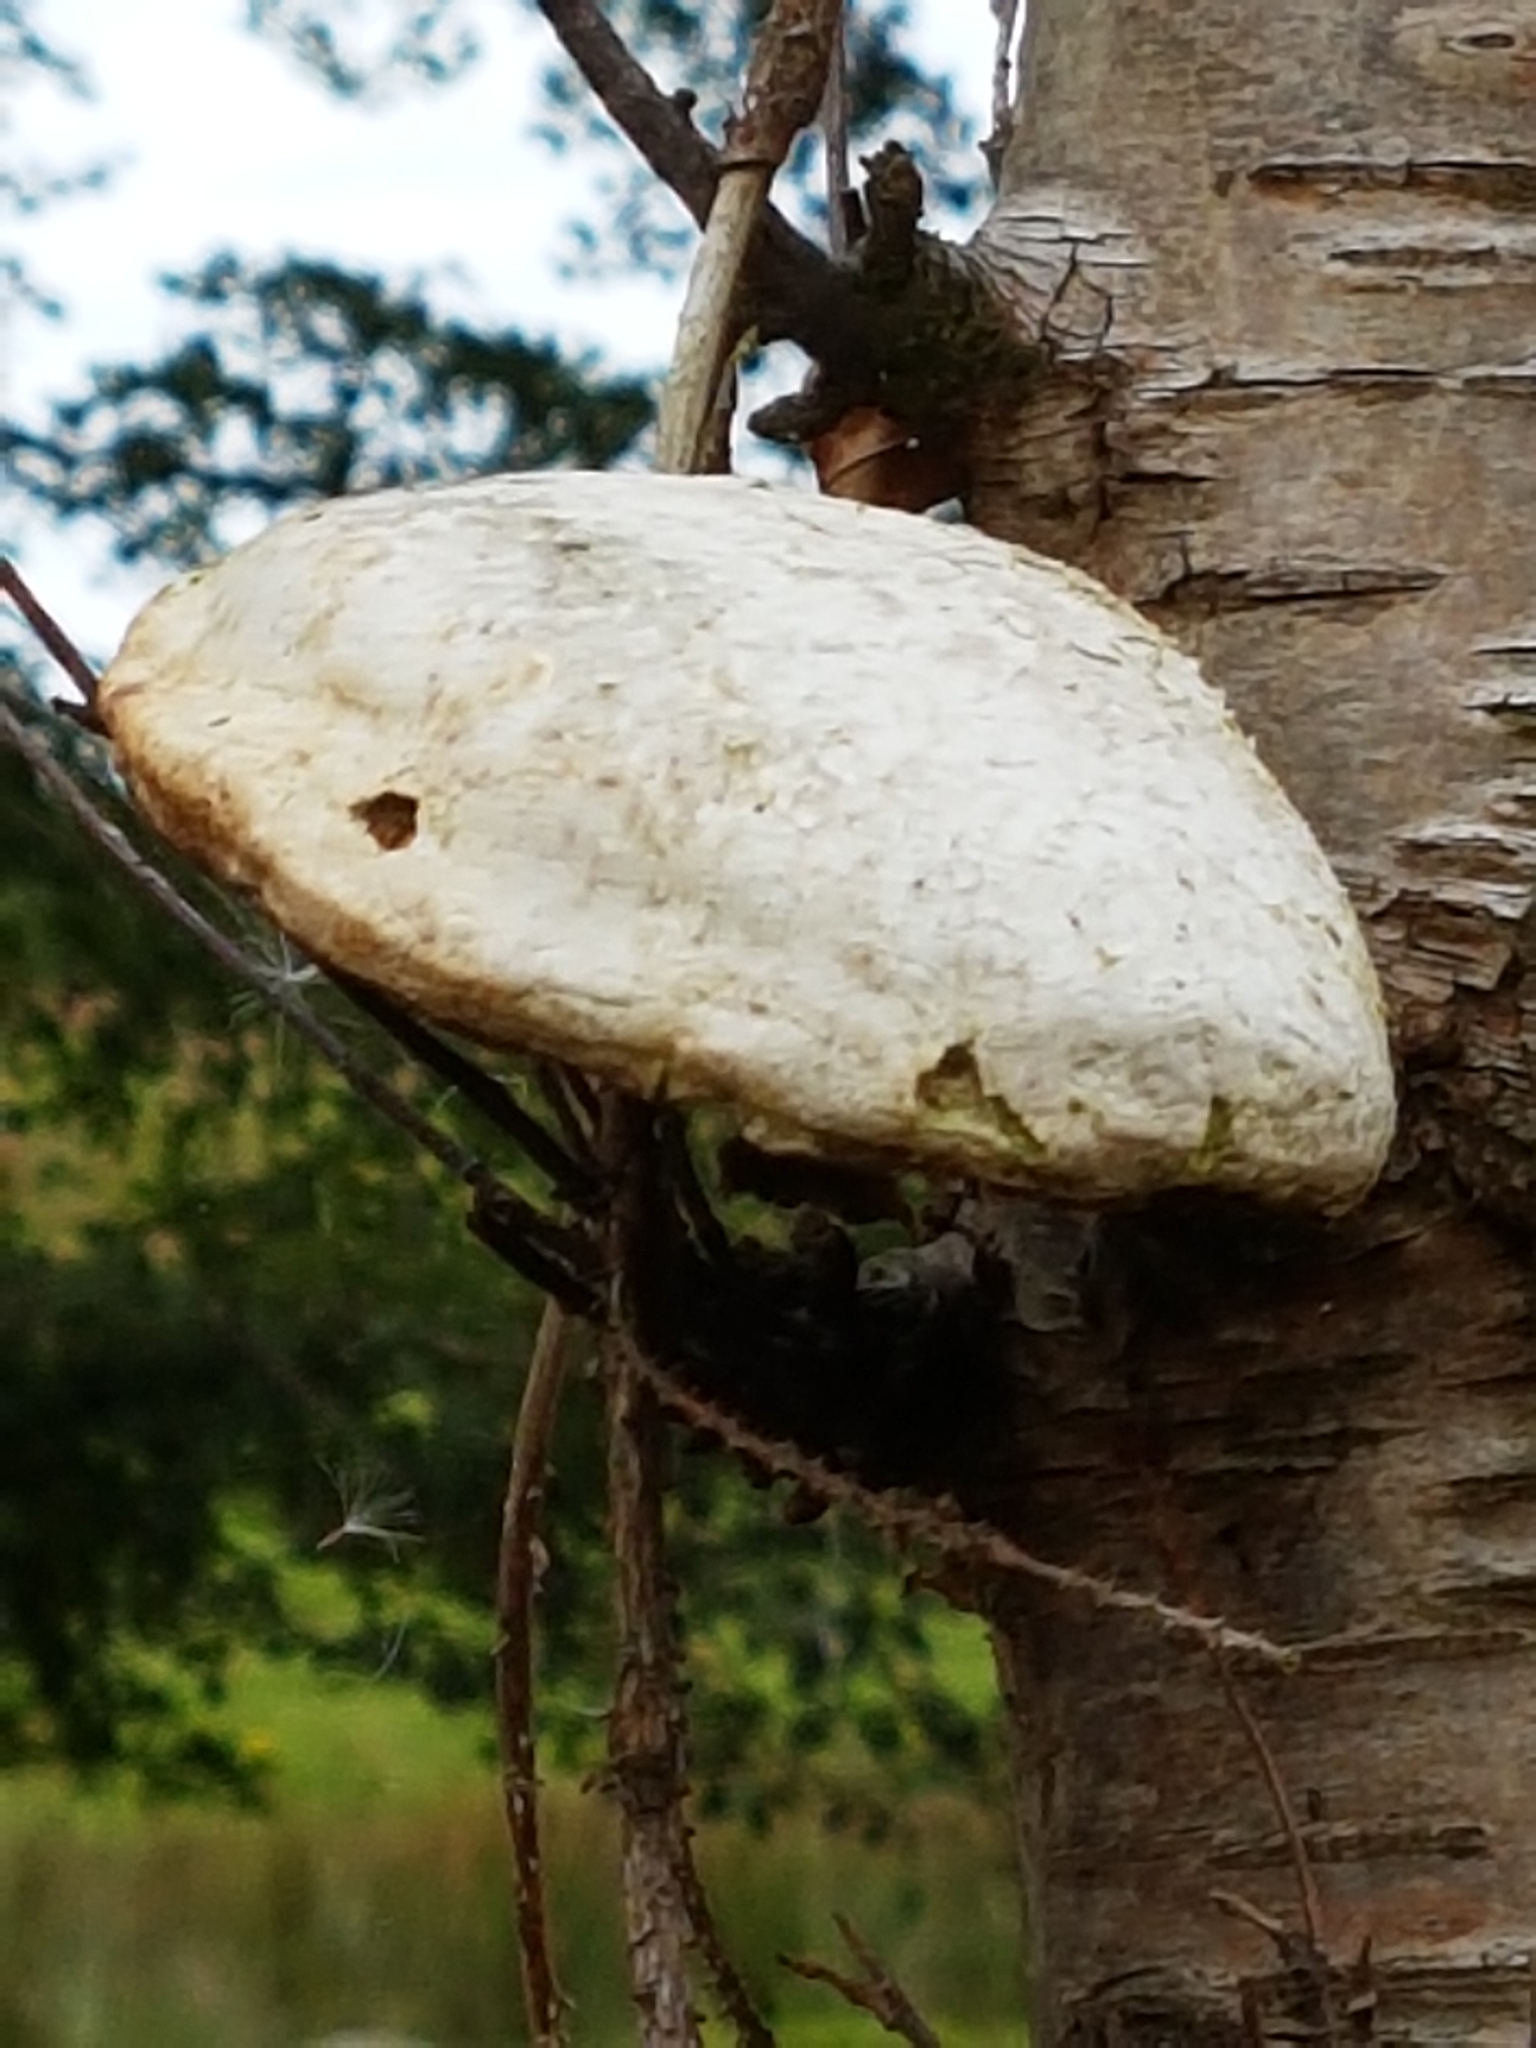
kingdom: Fungi
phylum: Basidiomycota
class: Agaricomycetes
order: Polyporales
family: Fomitopsidaceae
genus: Fomitopsis
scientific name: Fomitopsis betulina
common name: Birch polypore
